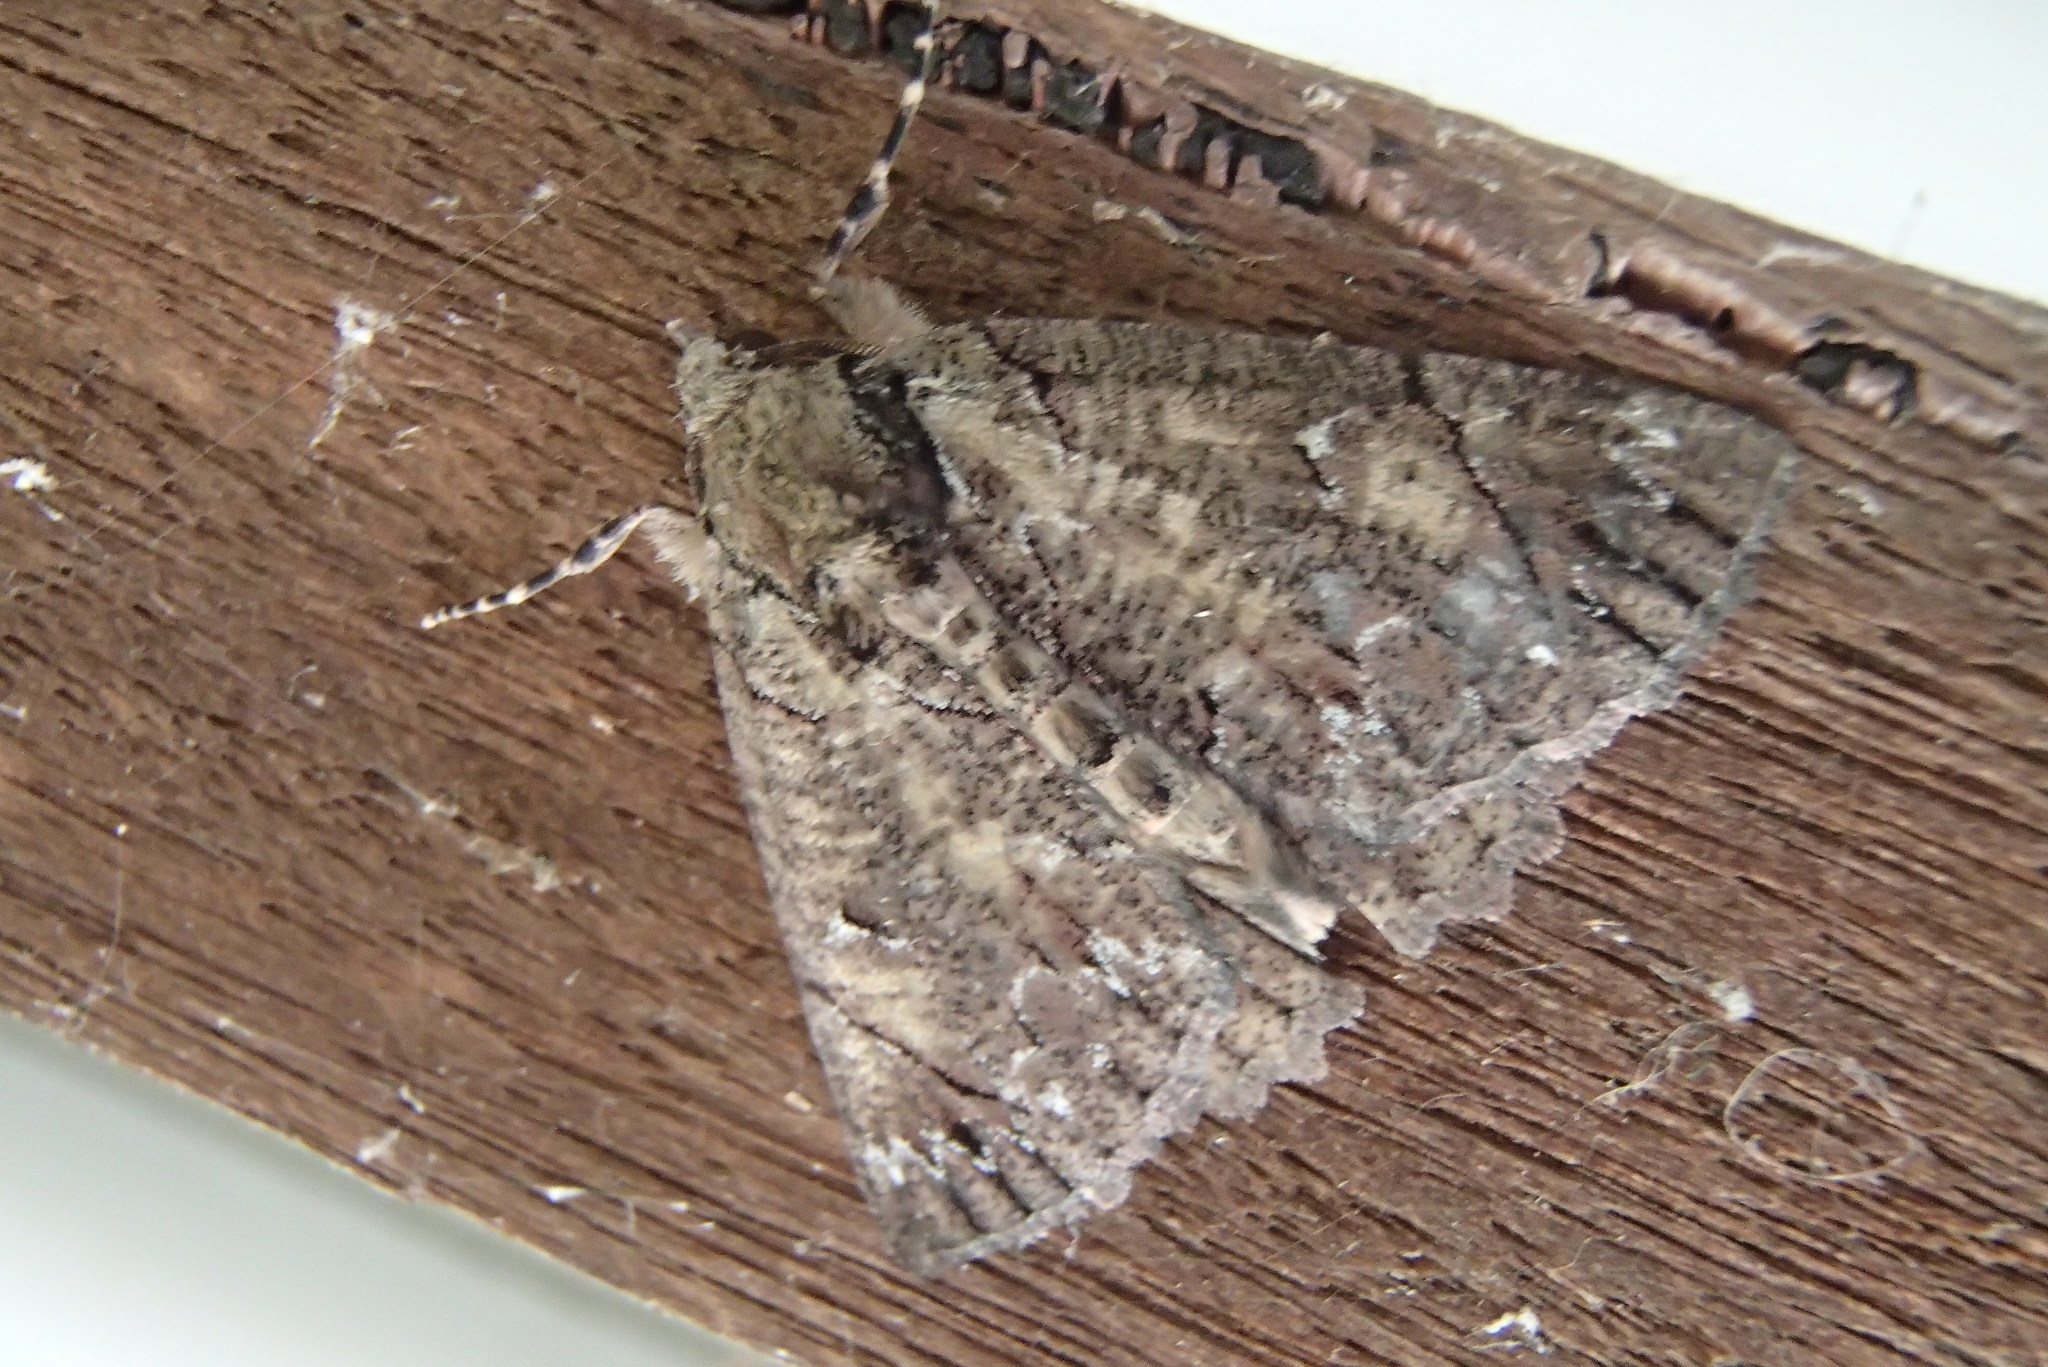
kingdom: Animalia
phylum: Arthropoda
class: Insecta
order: Lepidoptera
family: Geometridae
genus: Heliomystis
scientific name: Heliomystis electrica
